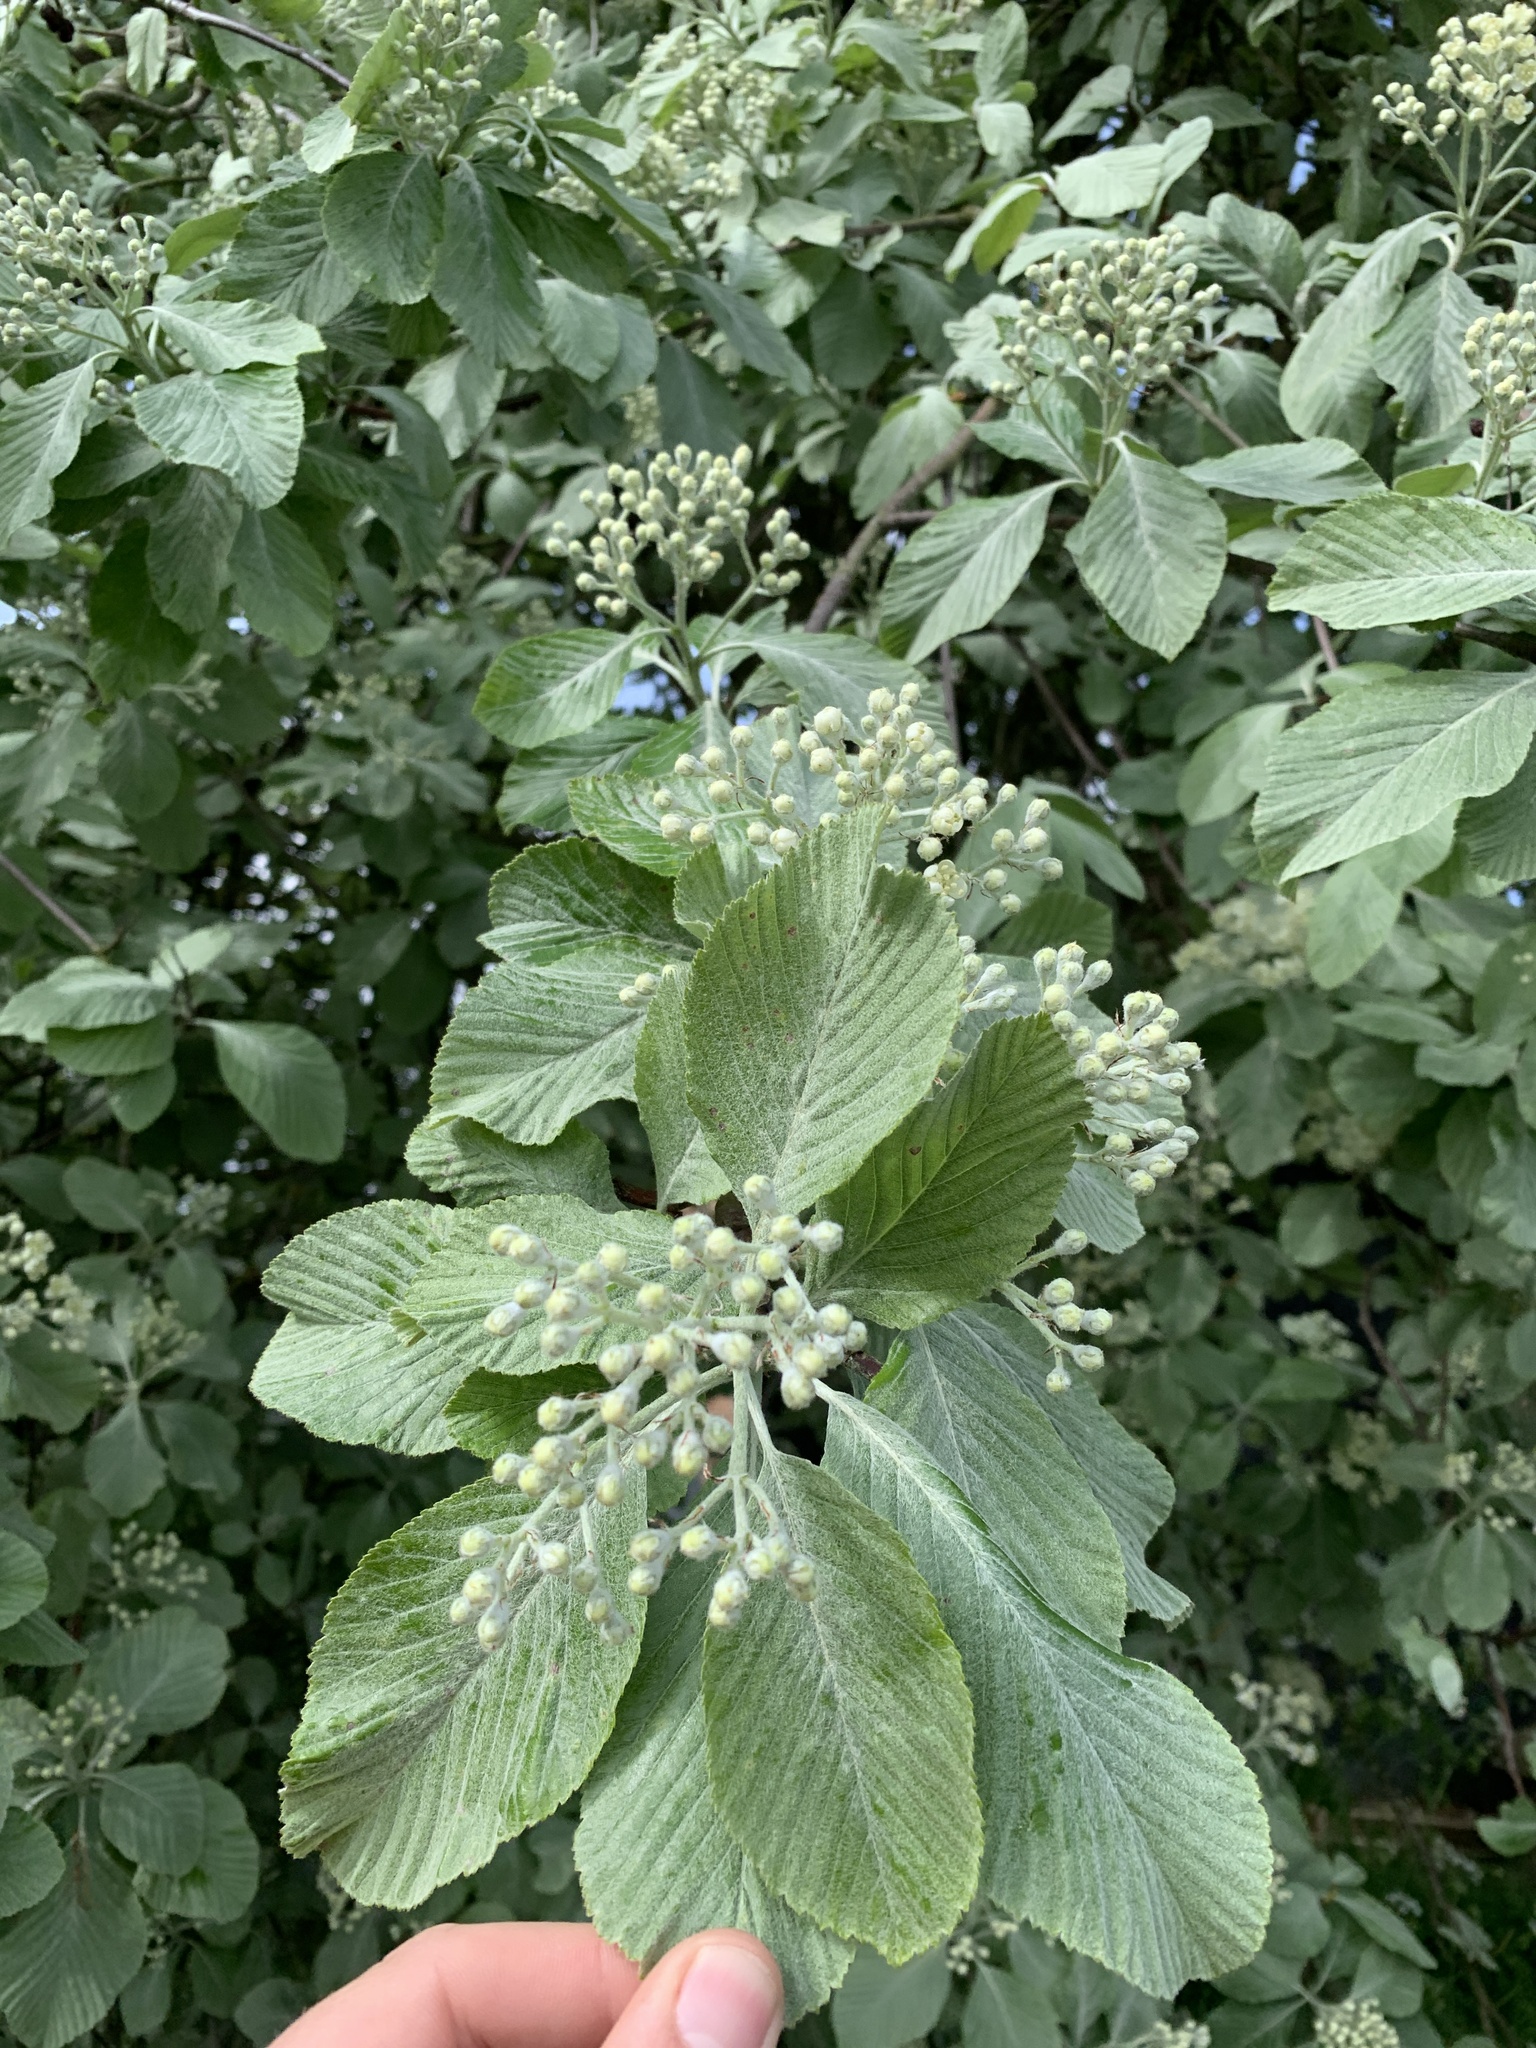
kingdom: Plantae
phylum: Tracheophyta
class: Magnoliopsida
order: Rosales
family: Rosaceae
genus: Aria
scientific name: Aria edulis
